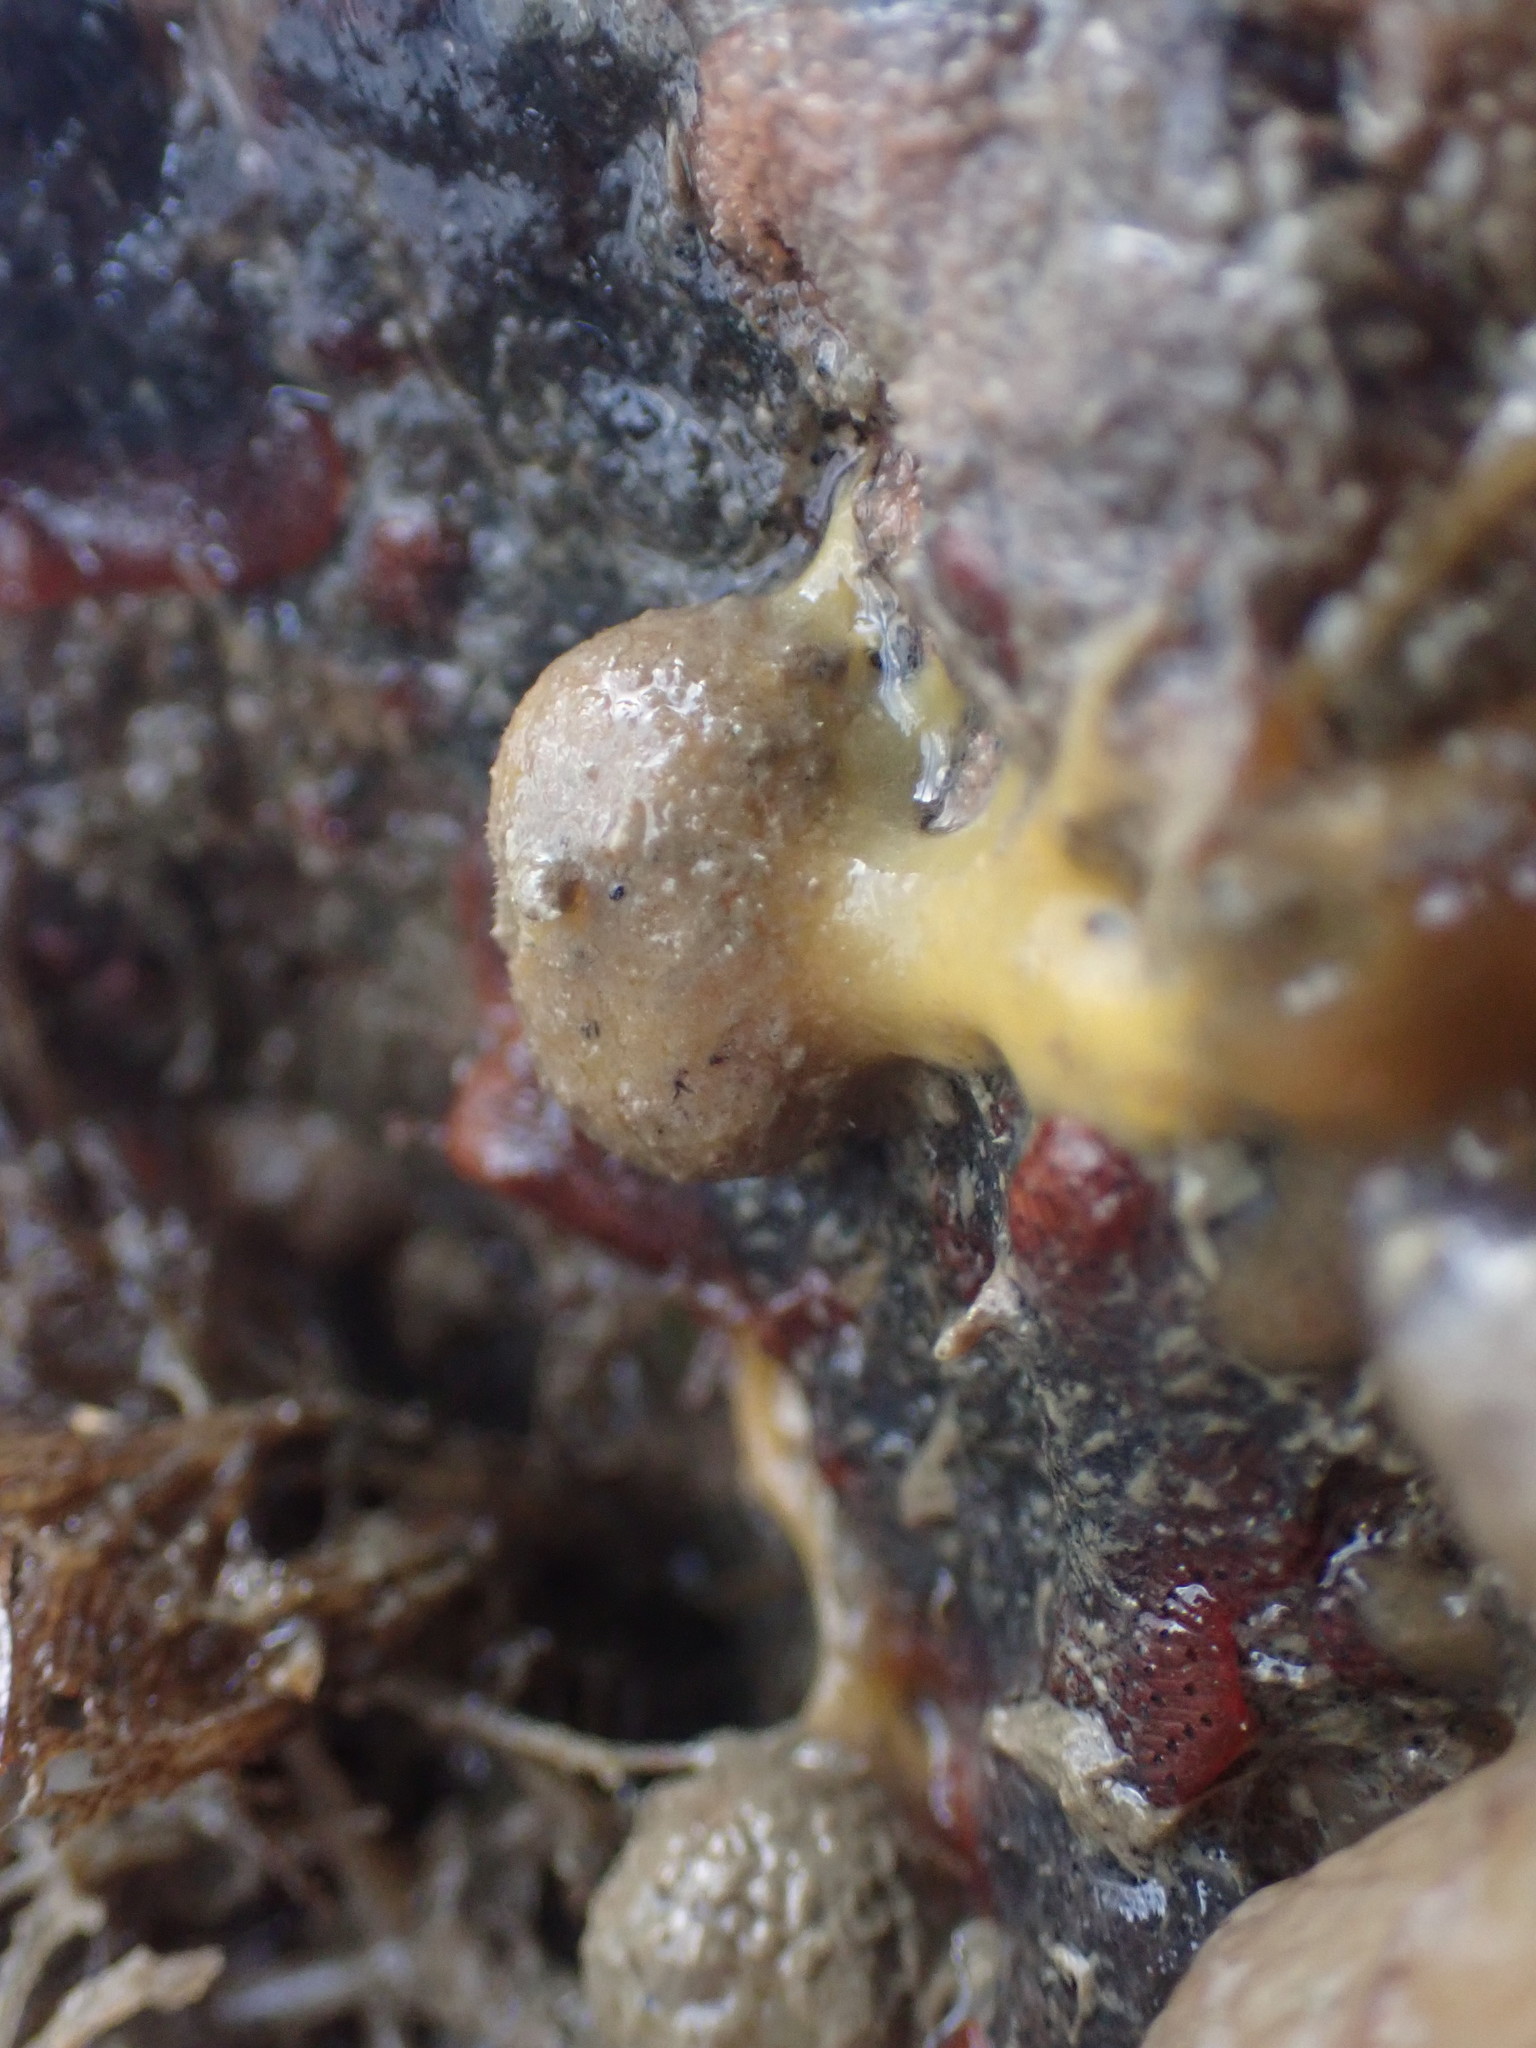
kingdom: Animalia
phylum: Porifera
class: Demospongiae
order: Tethyida
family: Tethyidae
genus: Tethya
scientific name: Tethya stolonifera
